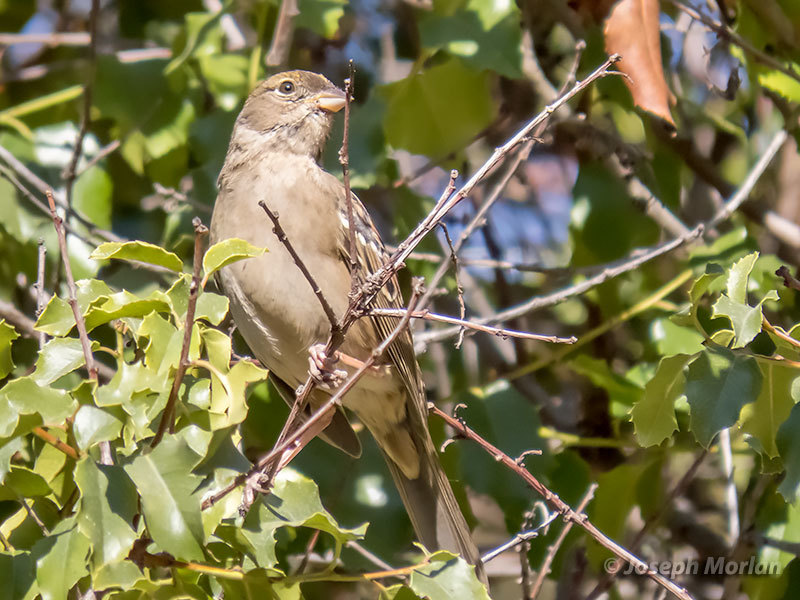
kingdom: Animalia
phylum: Chordata
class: Aves
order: Passeriformes
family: Passerellidae
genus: Zonotrichia
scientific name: Zonotrichia atricapilla
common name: Golden-crowned sparrow
